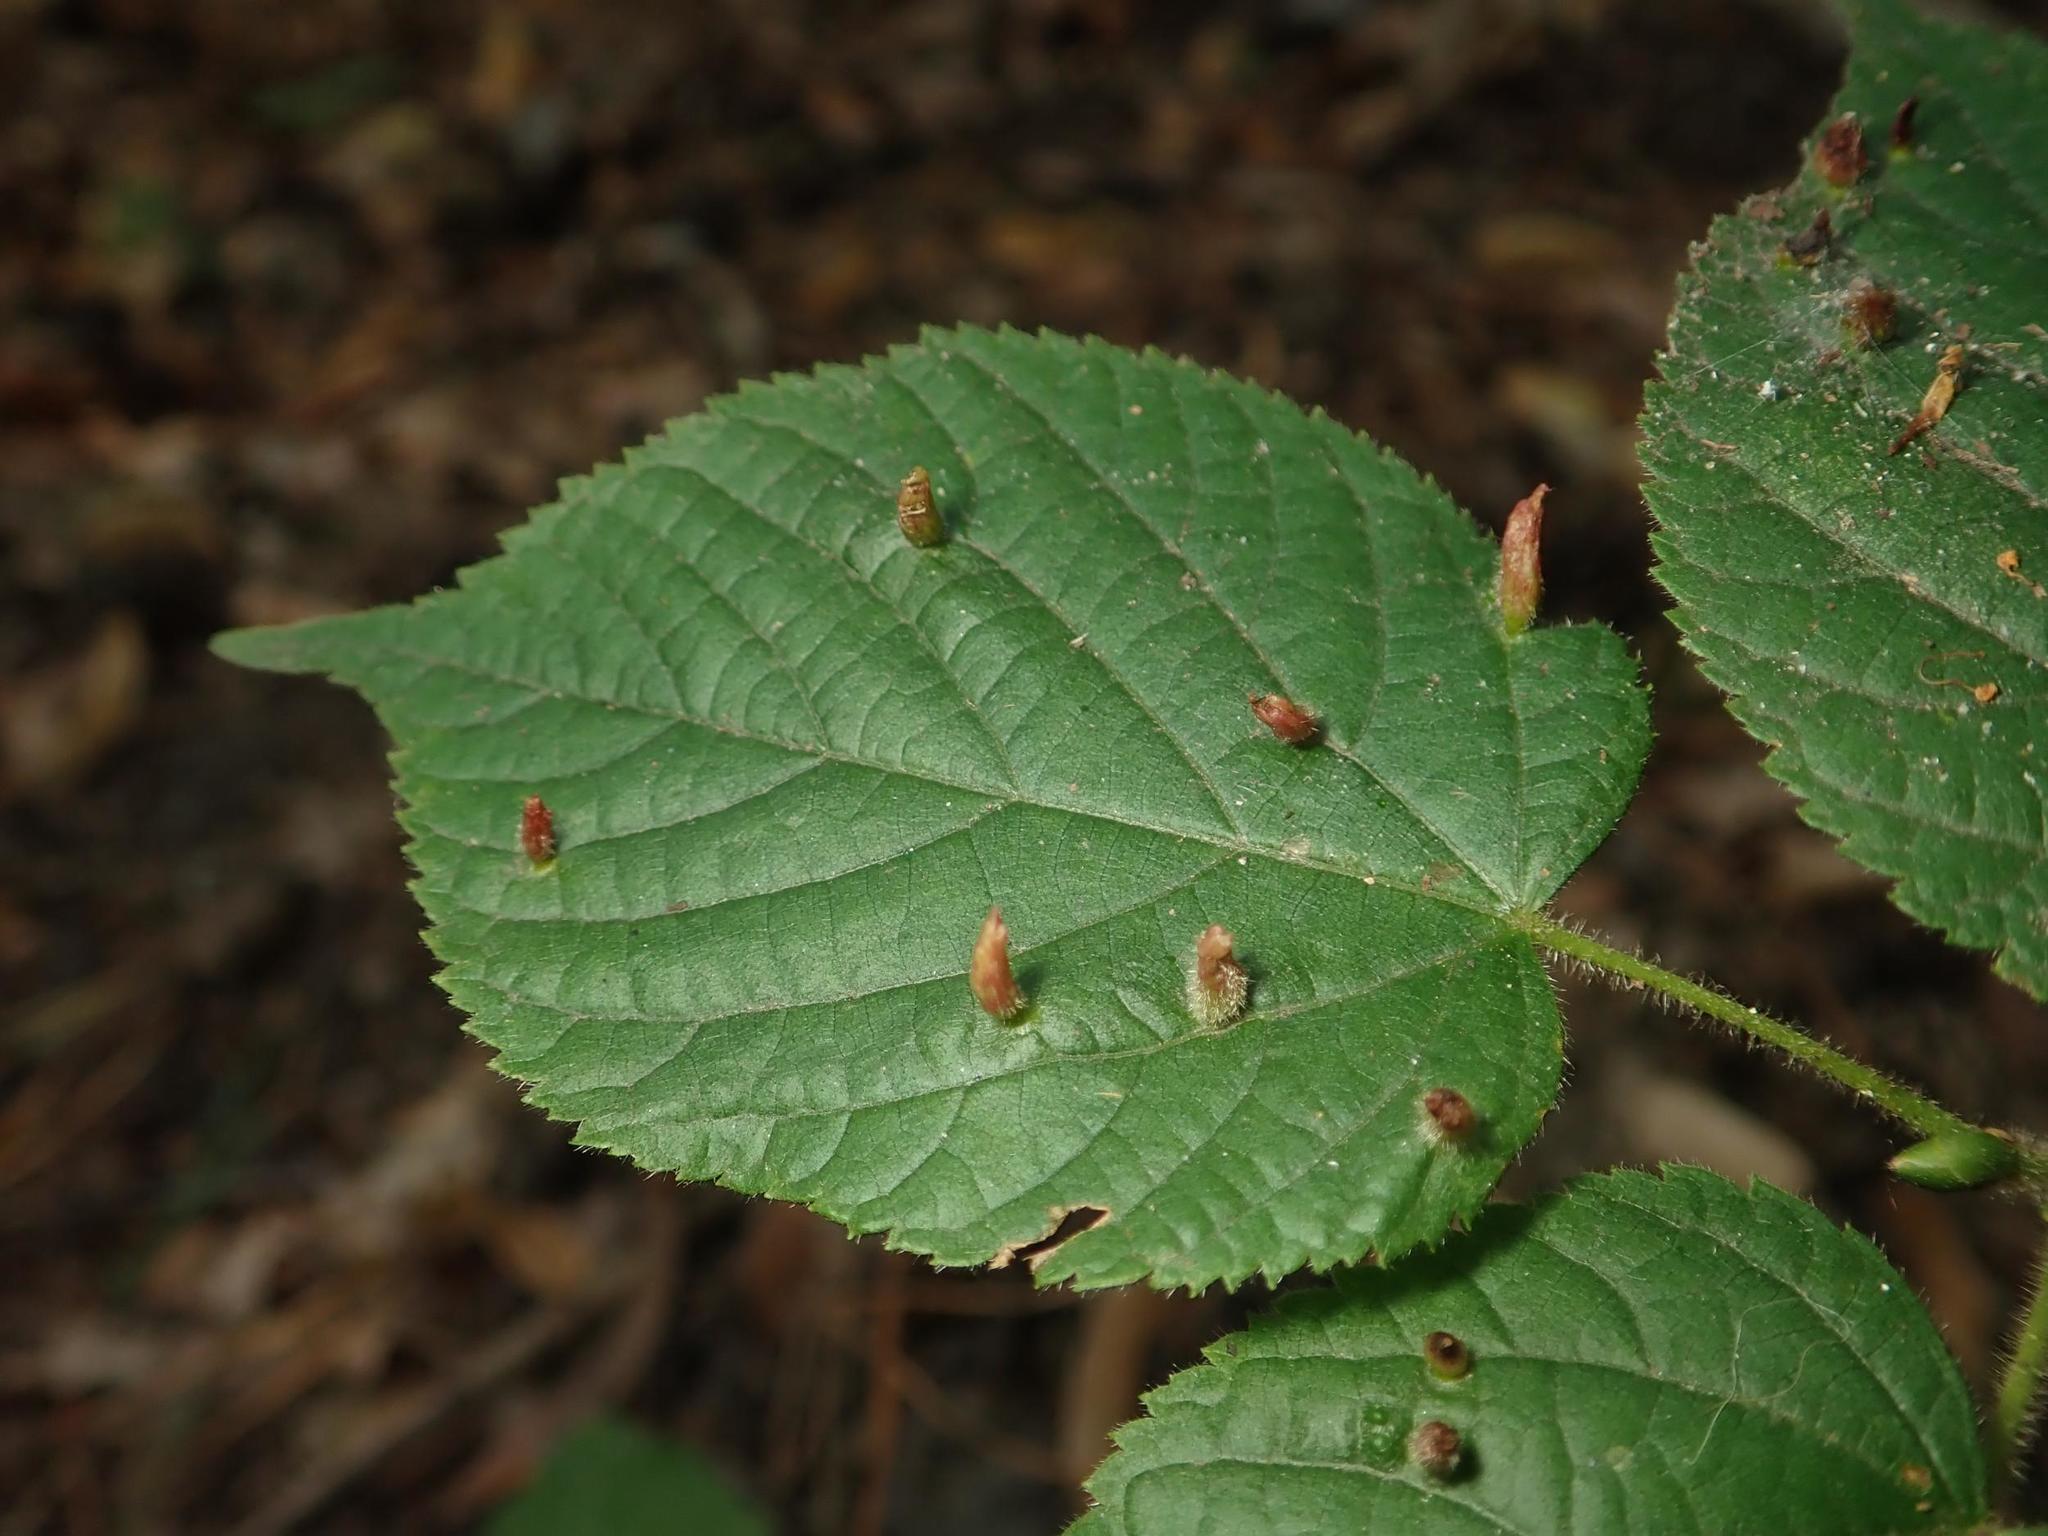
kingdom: Animalia
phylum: Arthropoda
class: Arachnida
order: Trombidiformes
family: Eriophyidae
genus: Eriophyes
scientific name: Eriophyes tiliae
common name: Red nail gall mite
